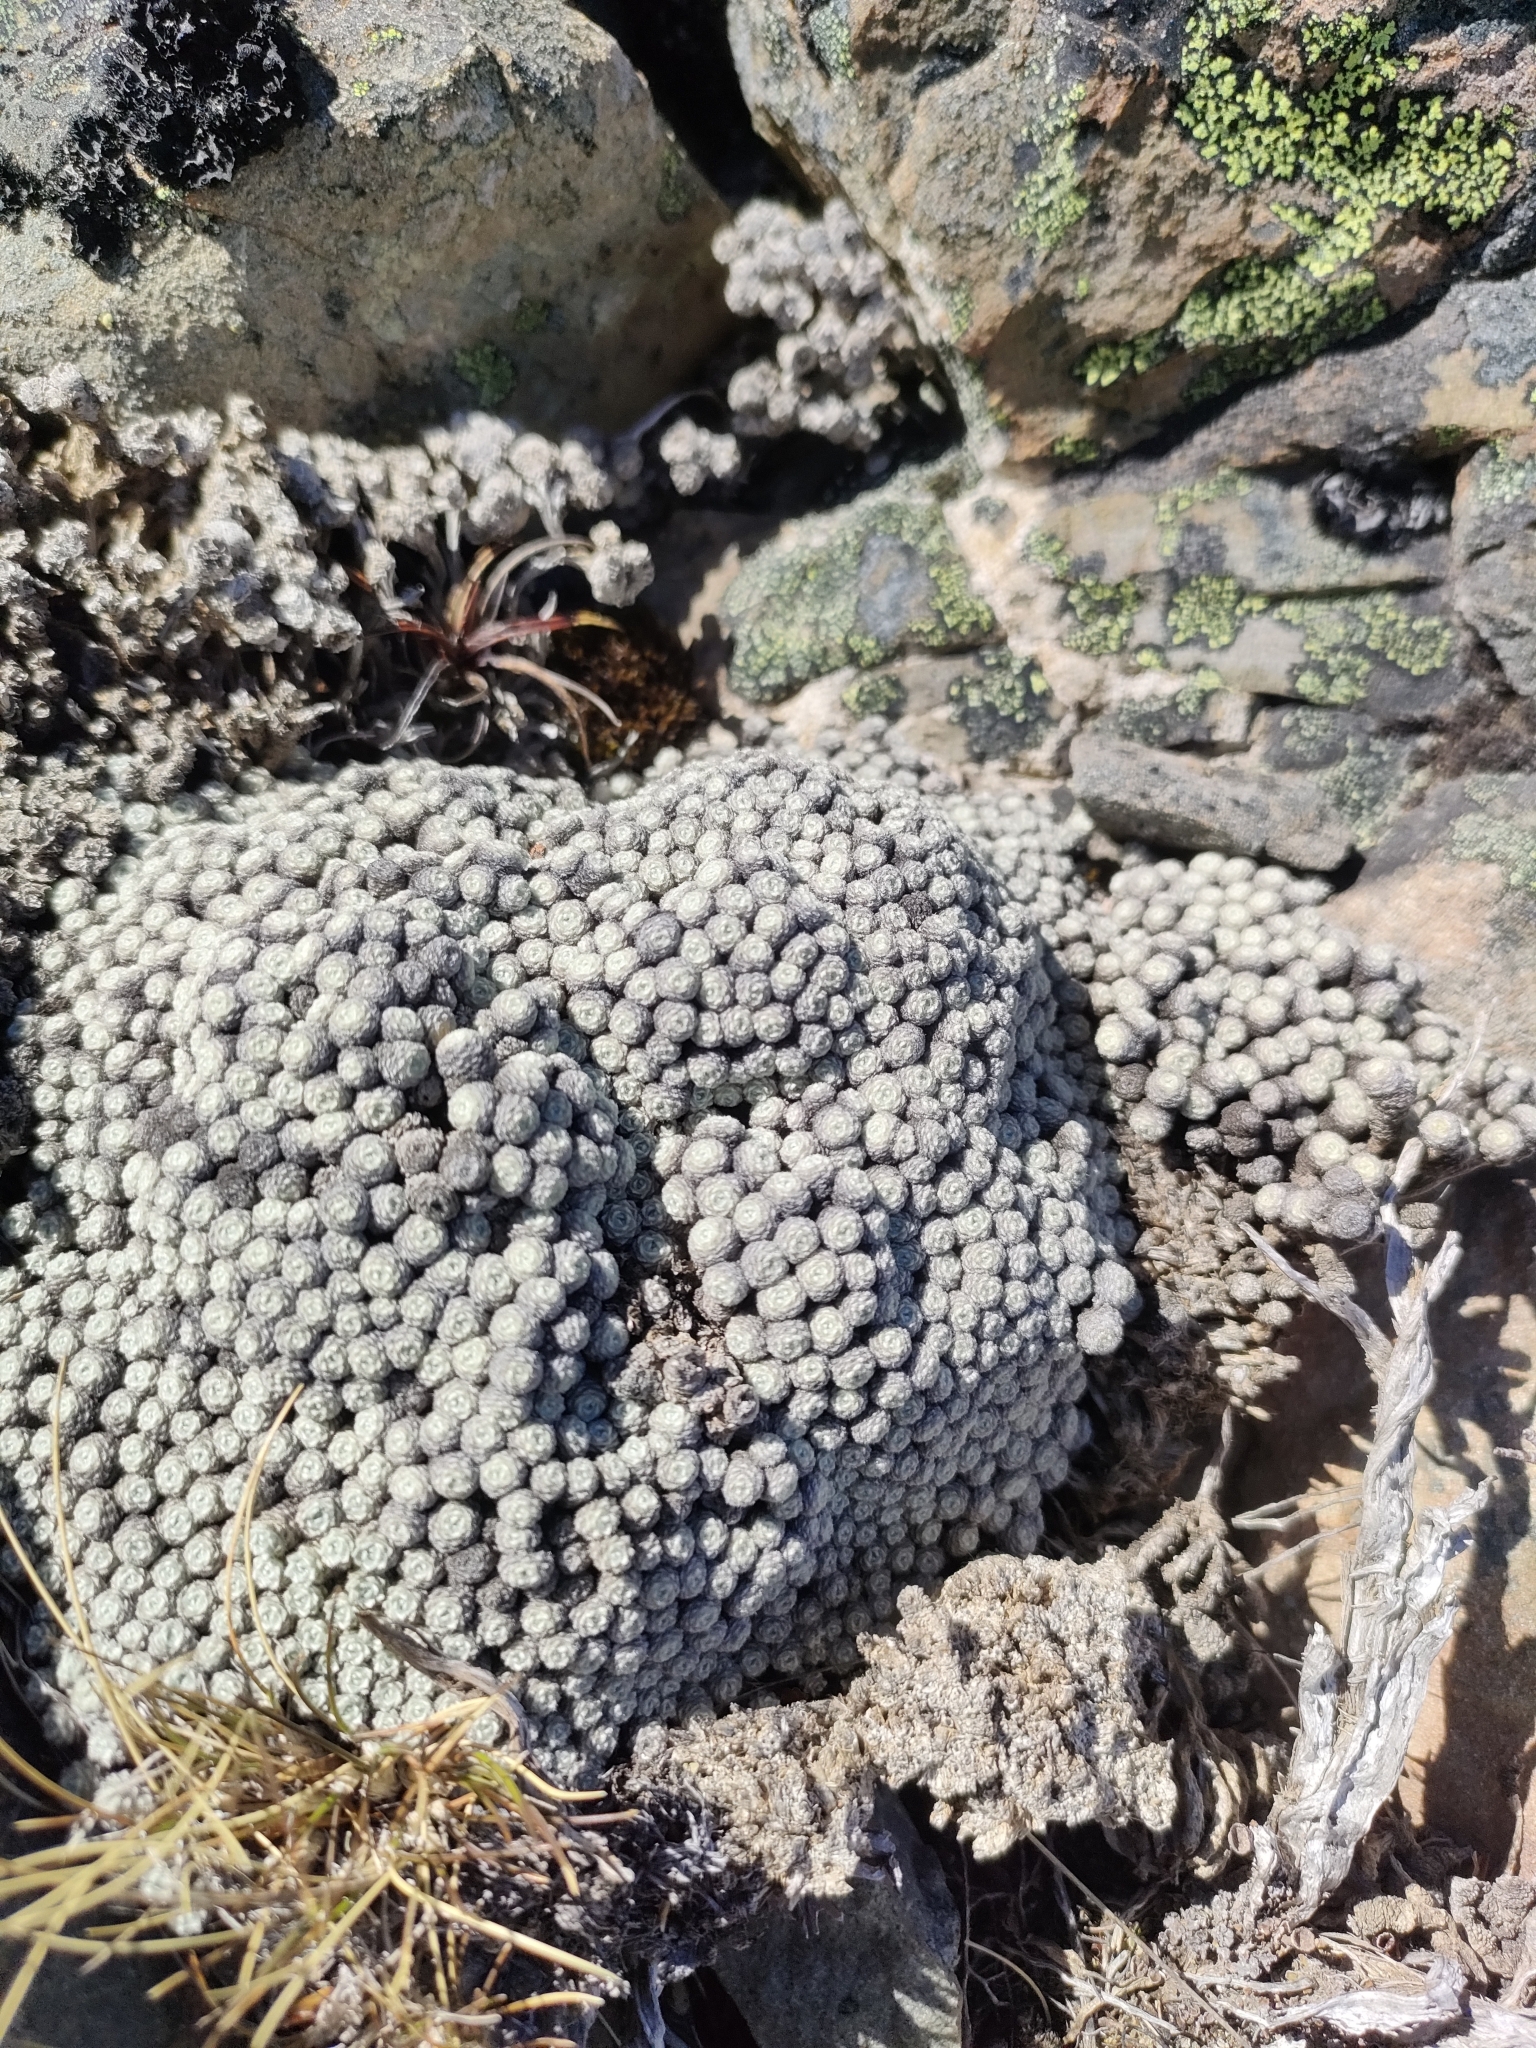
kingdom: Plantae
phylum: Tracheophyta
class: Magnoliopsida
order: Asterales
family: Asteraceae
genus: Raoulia
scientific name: Raoulia bryoides
